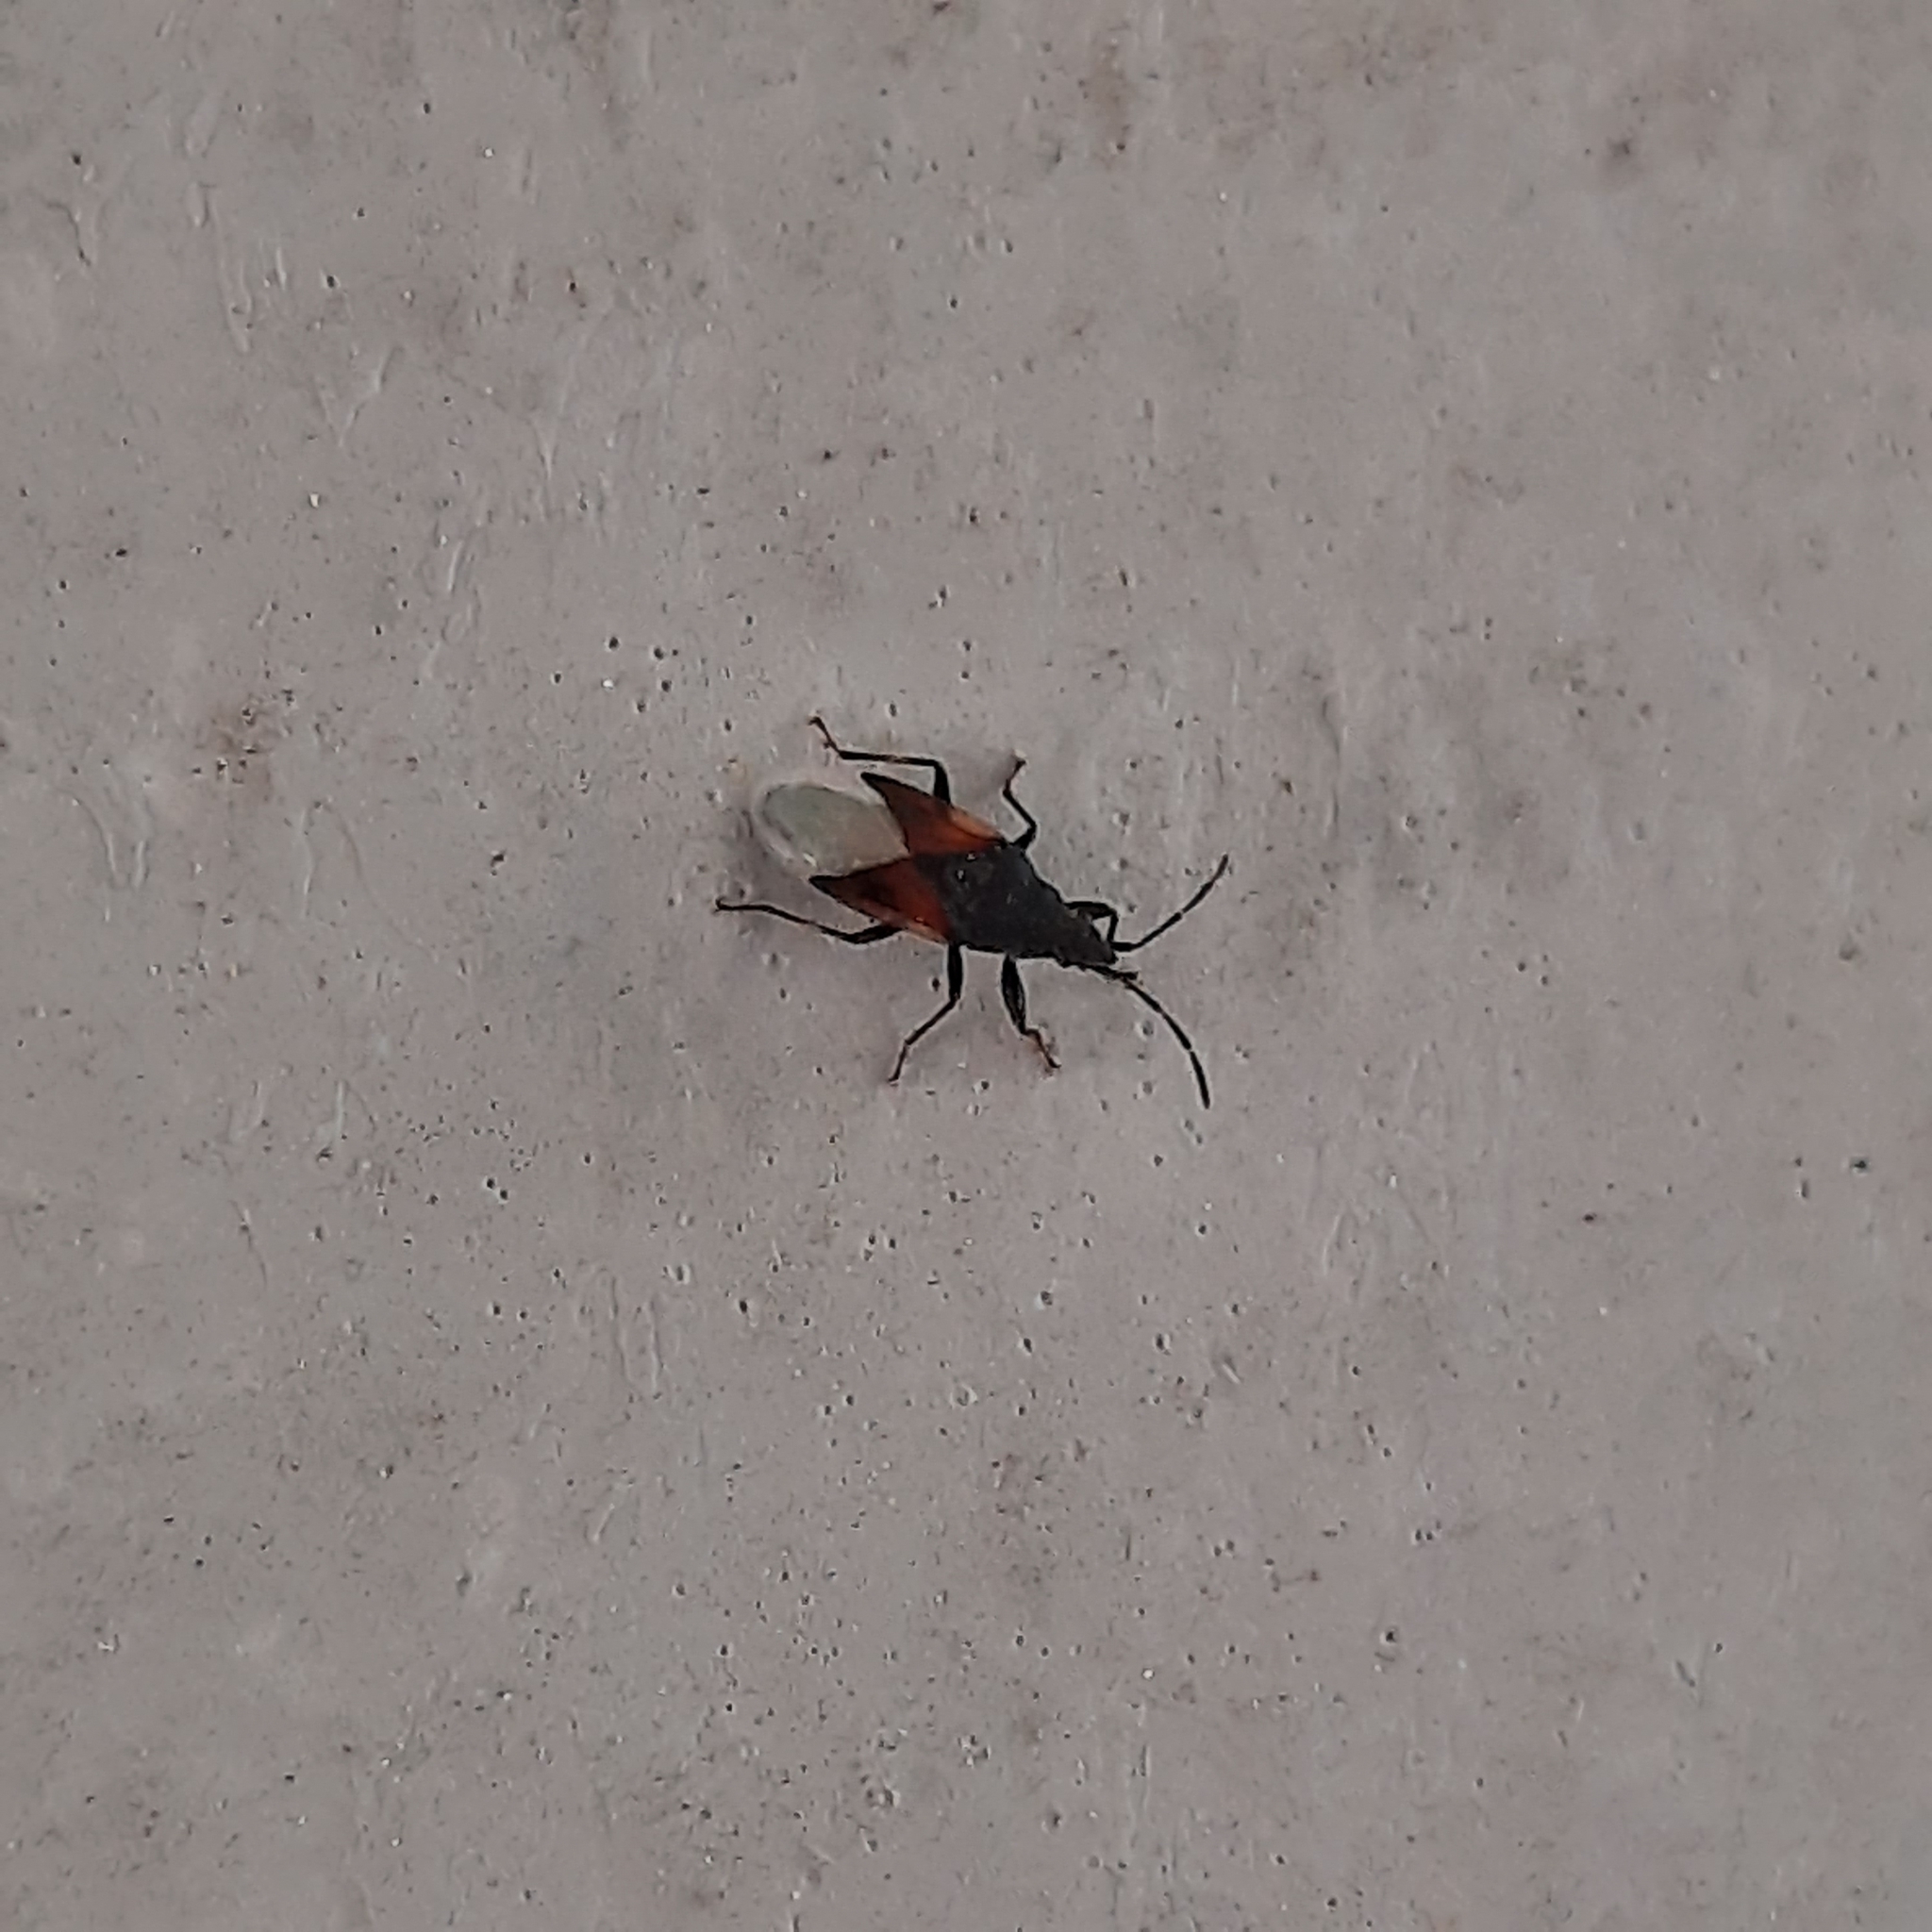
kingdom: Animalia
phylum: Arthropoda
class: Insecta
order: Hemiptera
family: Oxycarenidae
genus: Oxycarenus
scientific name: Oxycarenus lavaterae
